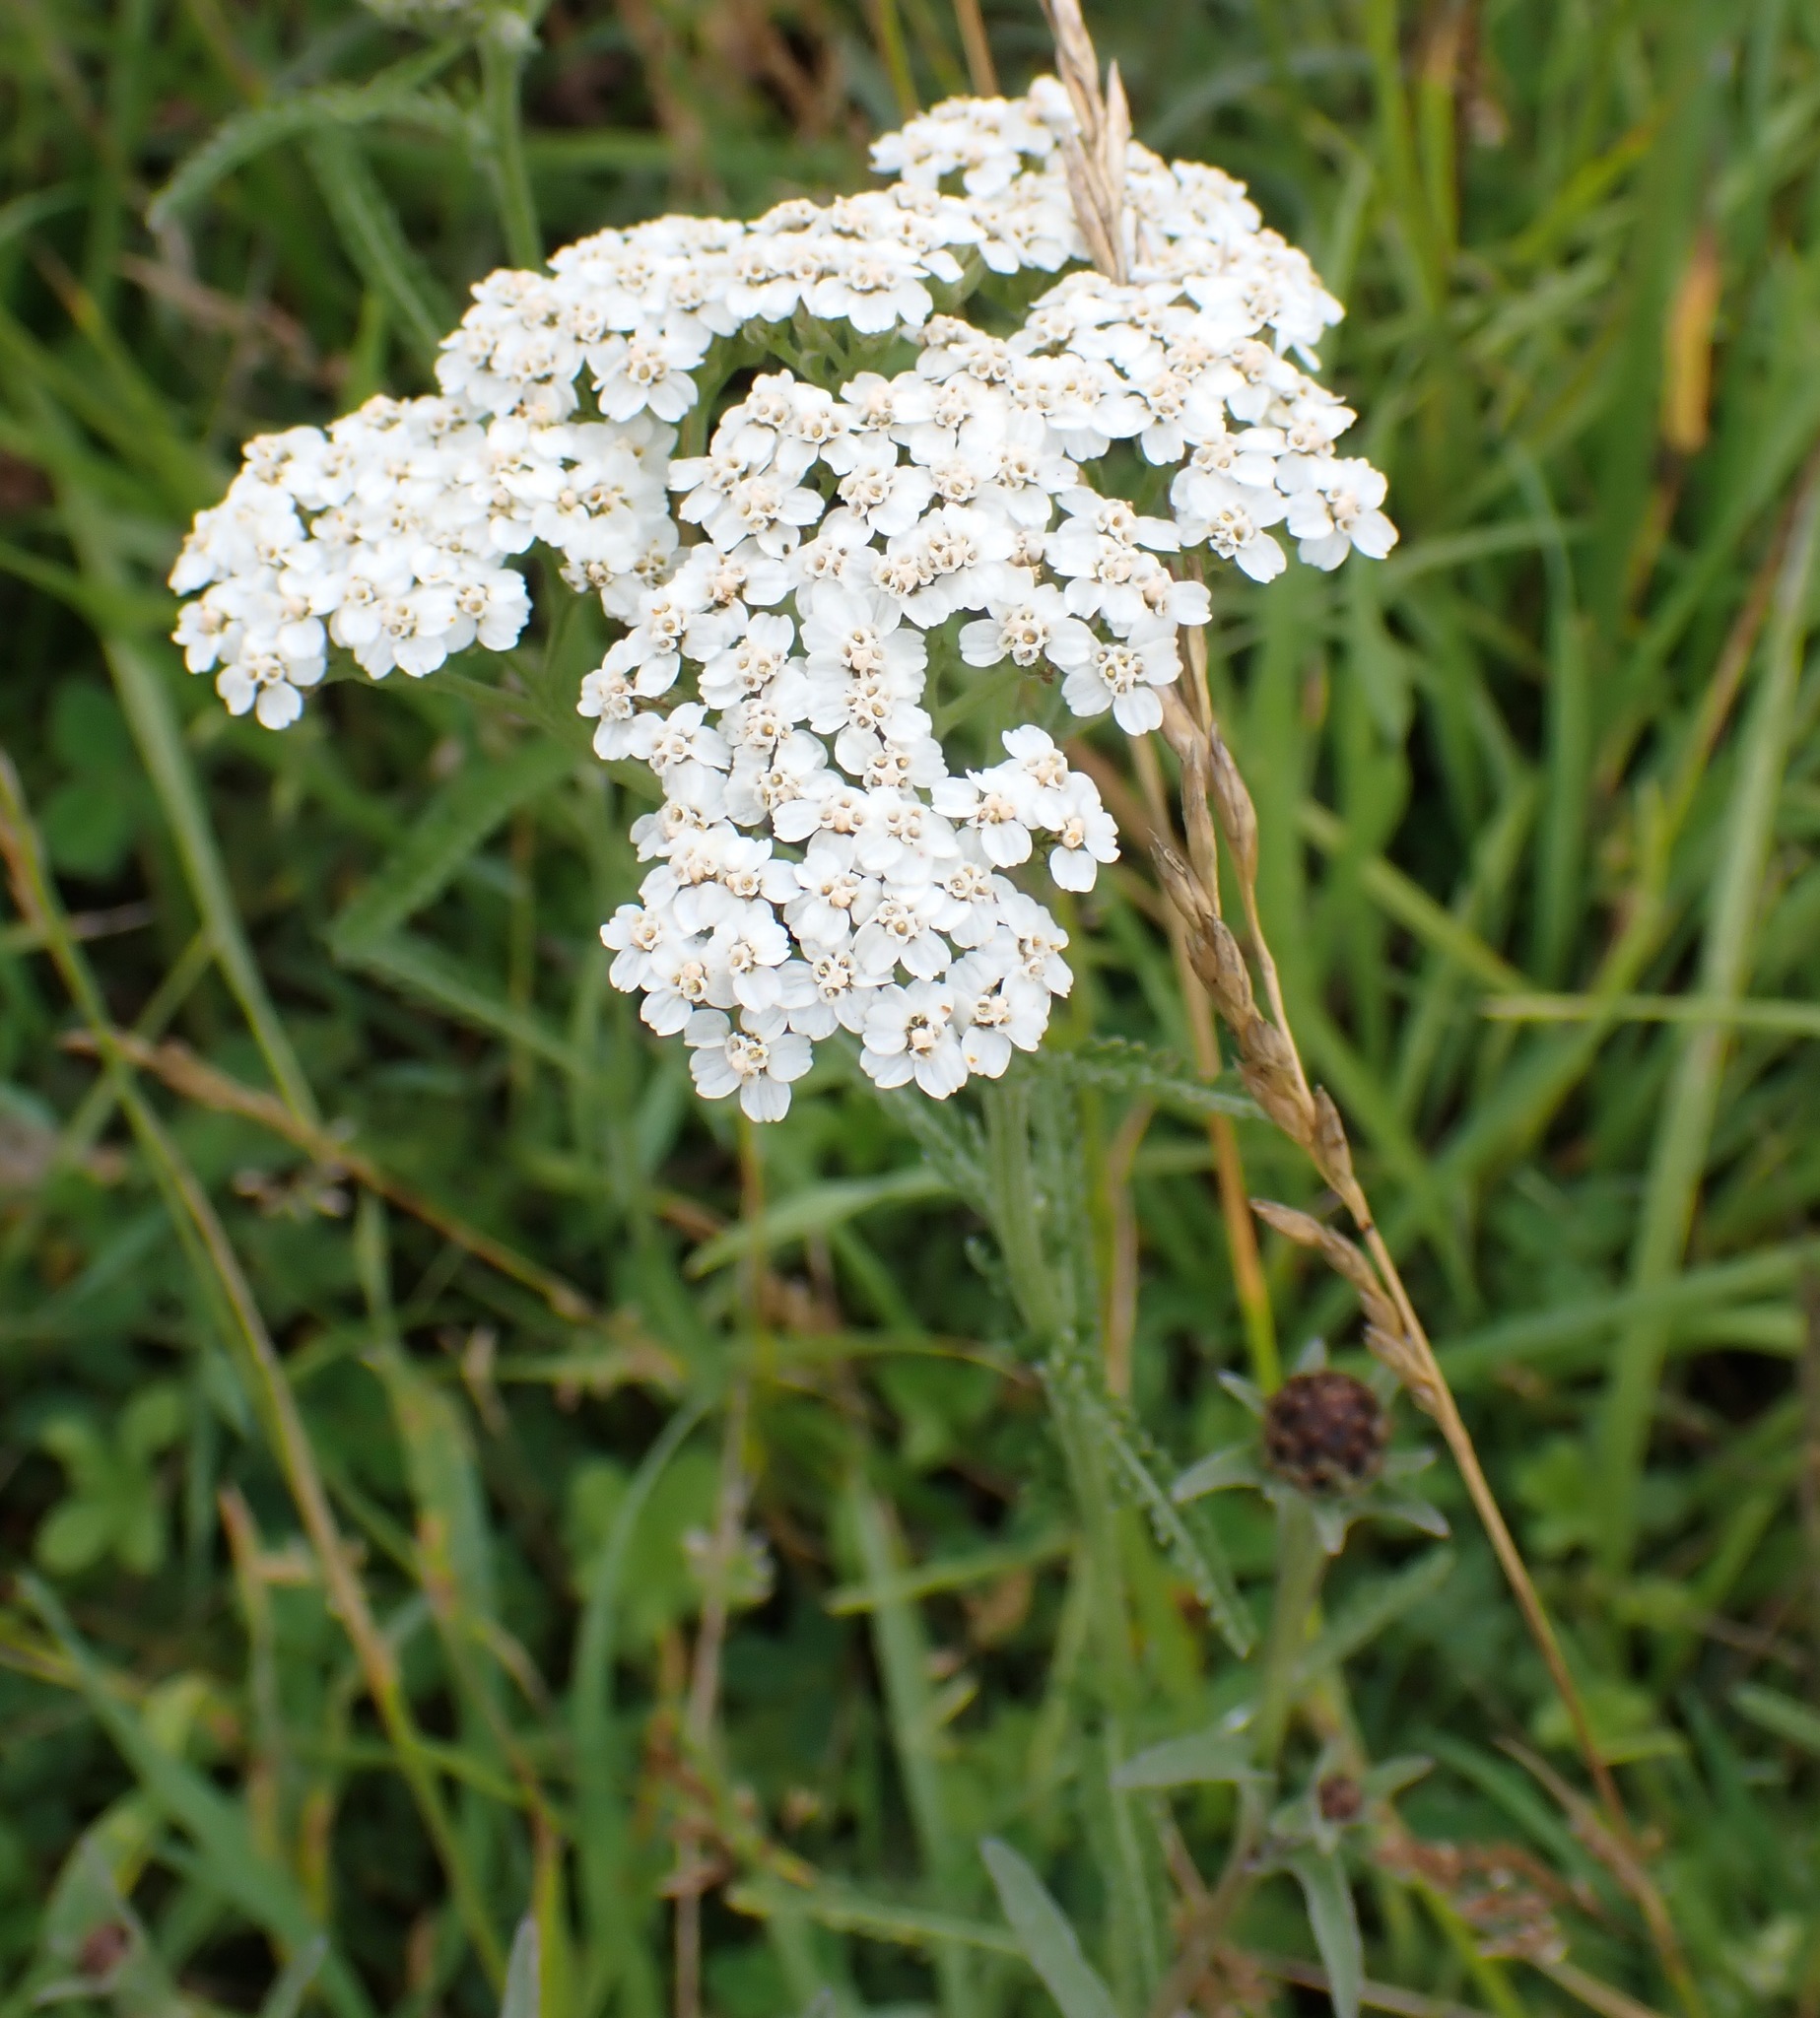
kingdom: Plantae
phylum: Tracheophyta
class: Magnoliopsida
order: Asterales
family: Asteraceae
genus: Achillea
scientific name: Achillea millefolium
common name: Yarrow
